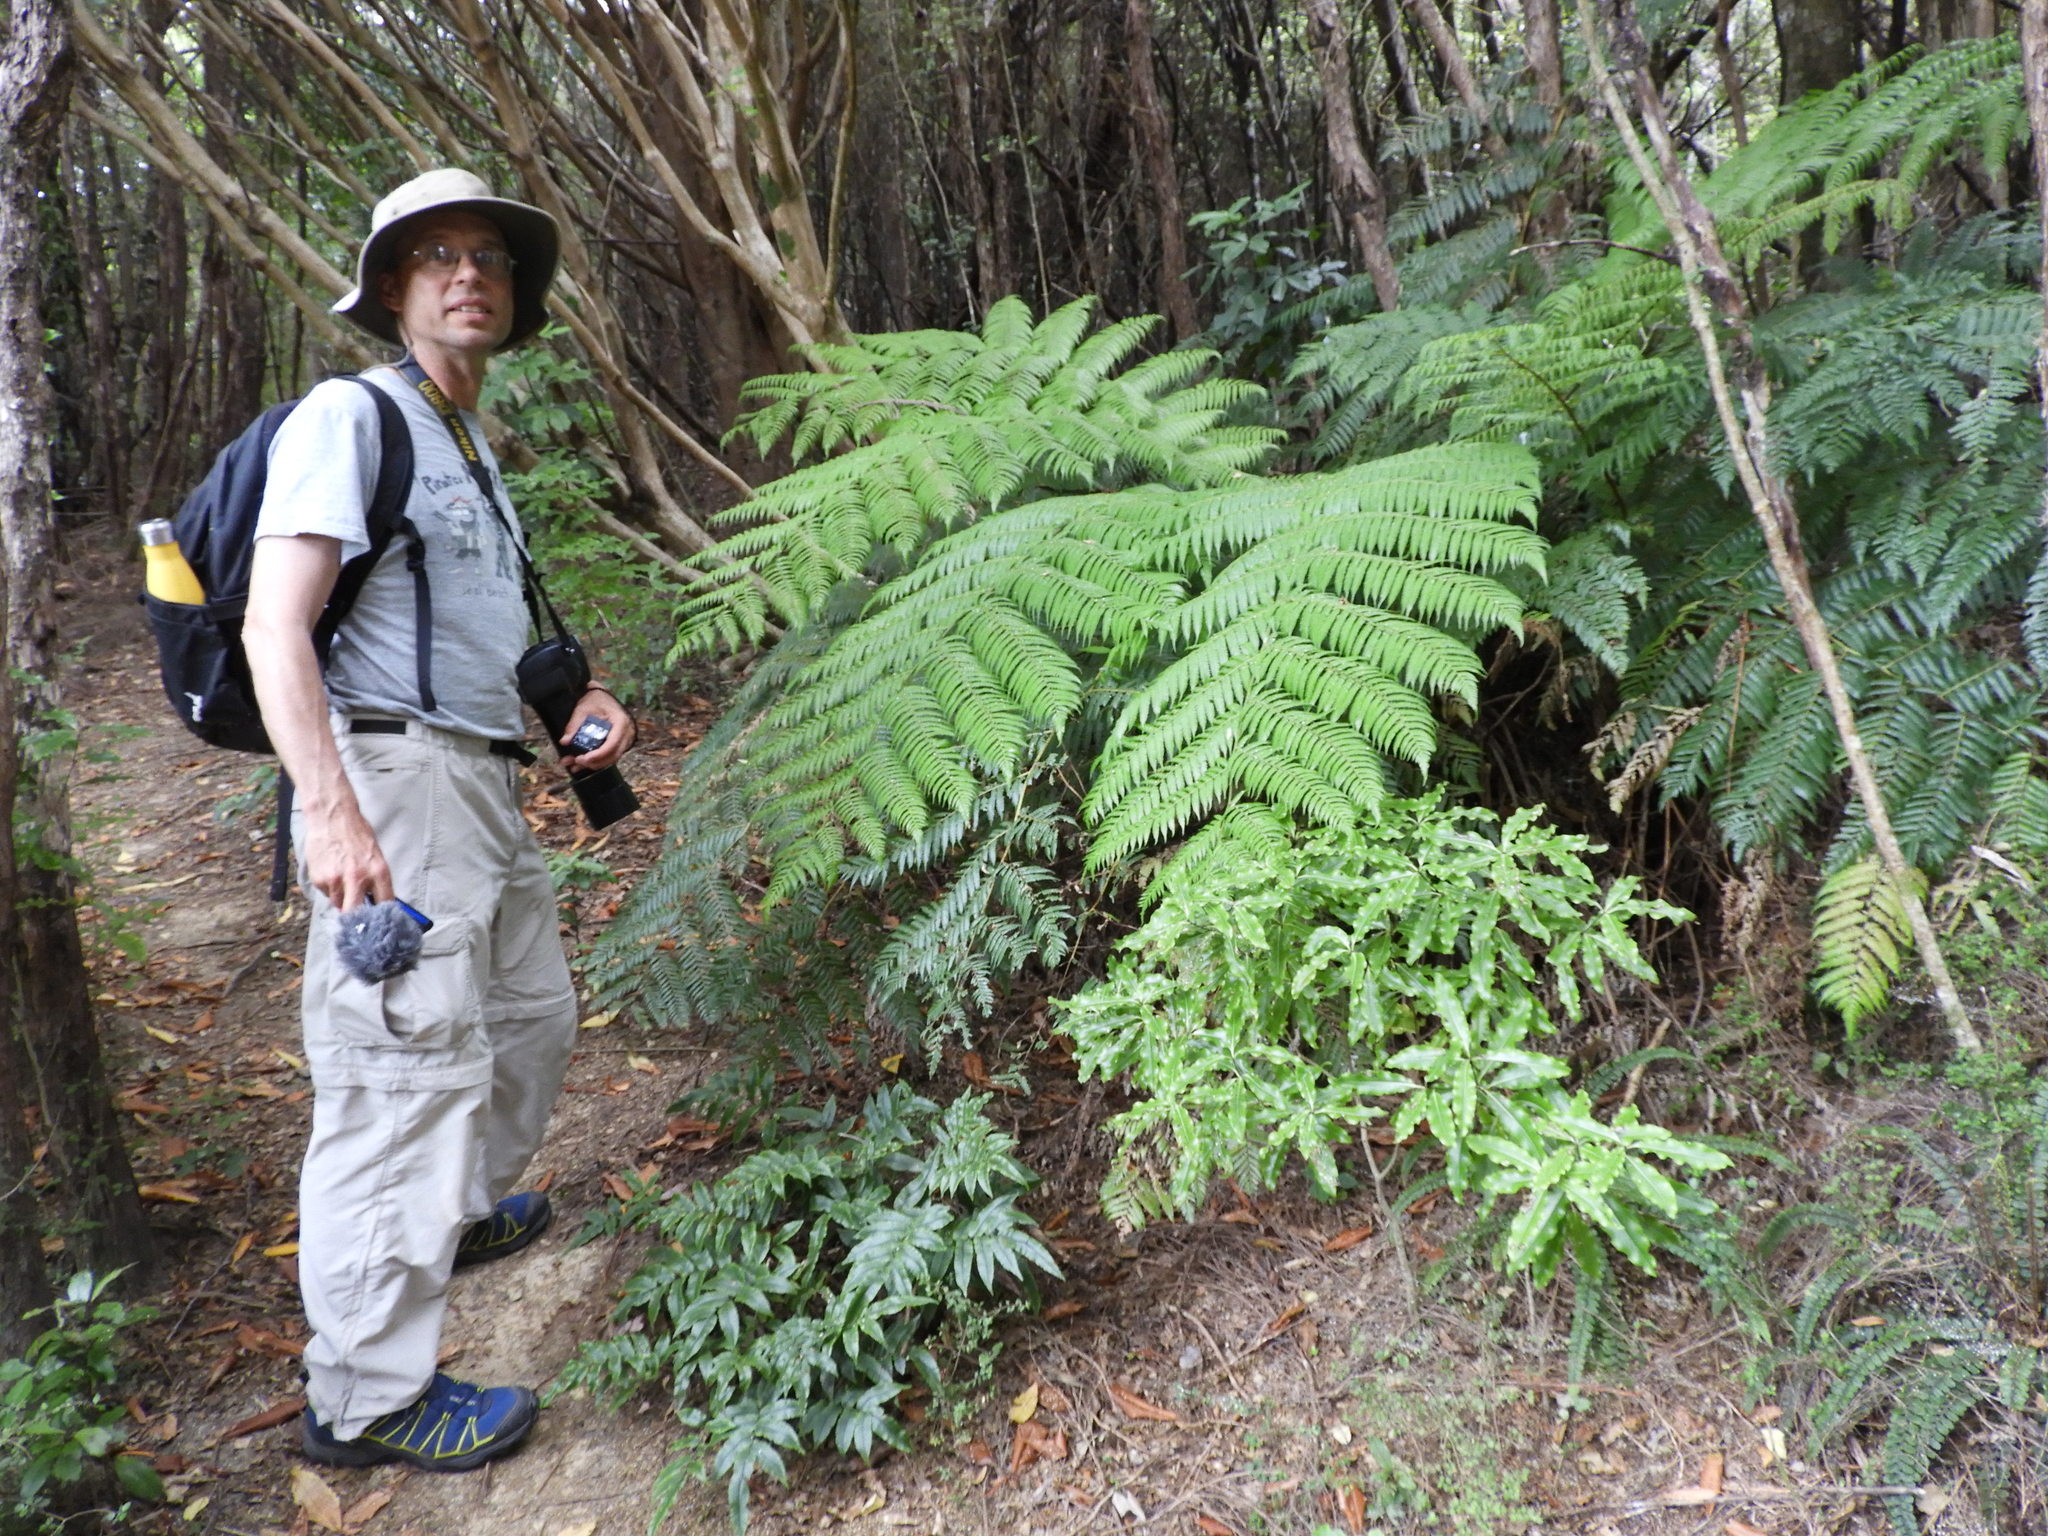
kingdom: Plantae
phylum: Tracheophyta
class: Polypodiopsida
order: Cyatheales
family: Cyatheaceae
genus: Alsophila
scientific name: Alsophila dealbata
